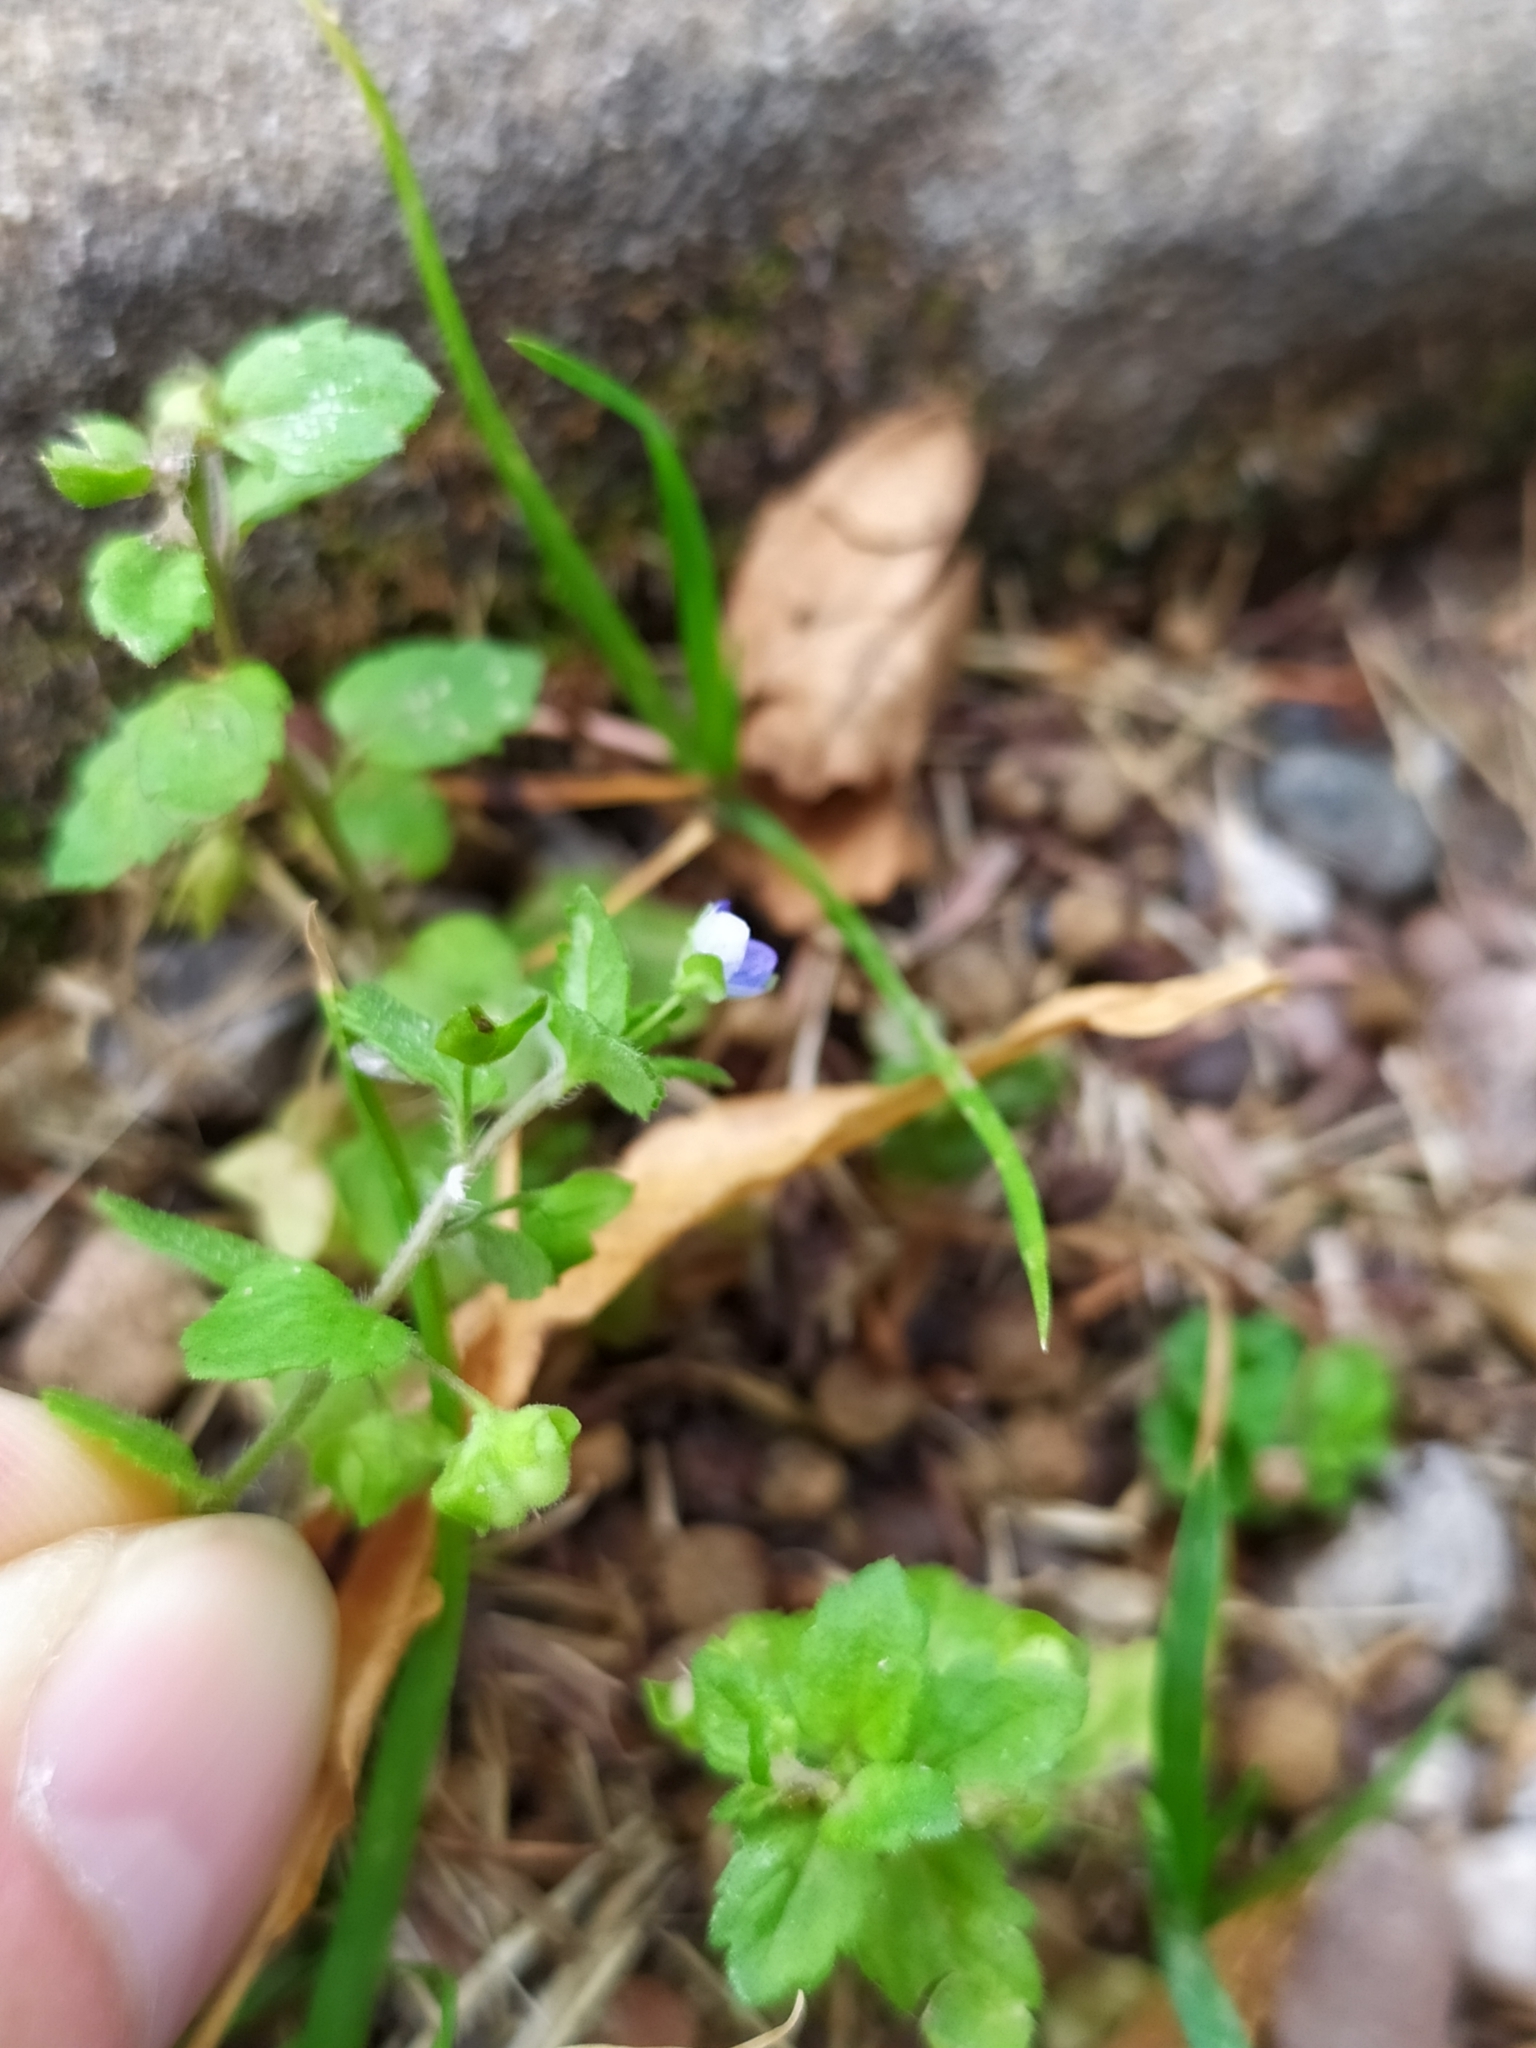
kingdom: Plantae
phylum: Tracheophyta
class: Magnoliopsida
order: Lamiales
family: Plantaginaceae
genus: Veronica
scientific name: Veronica polita
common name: Grey field-speedwell
